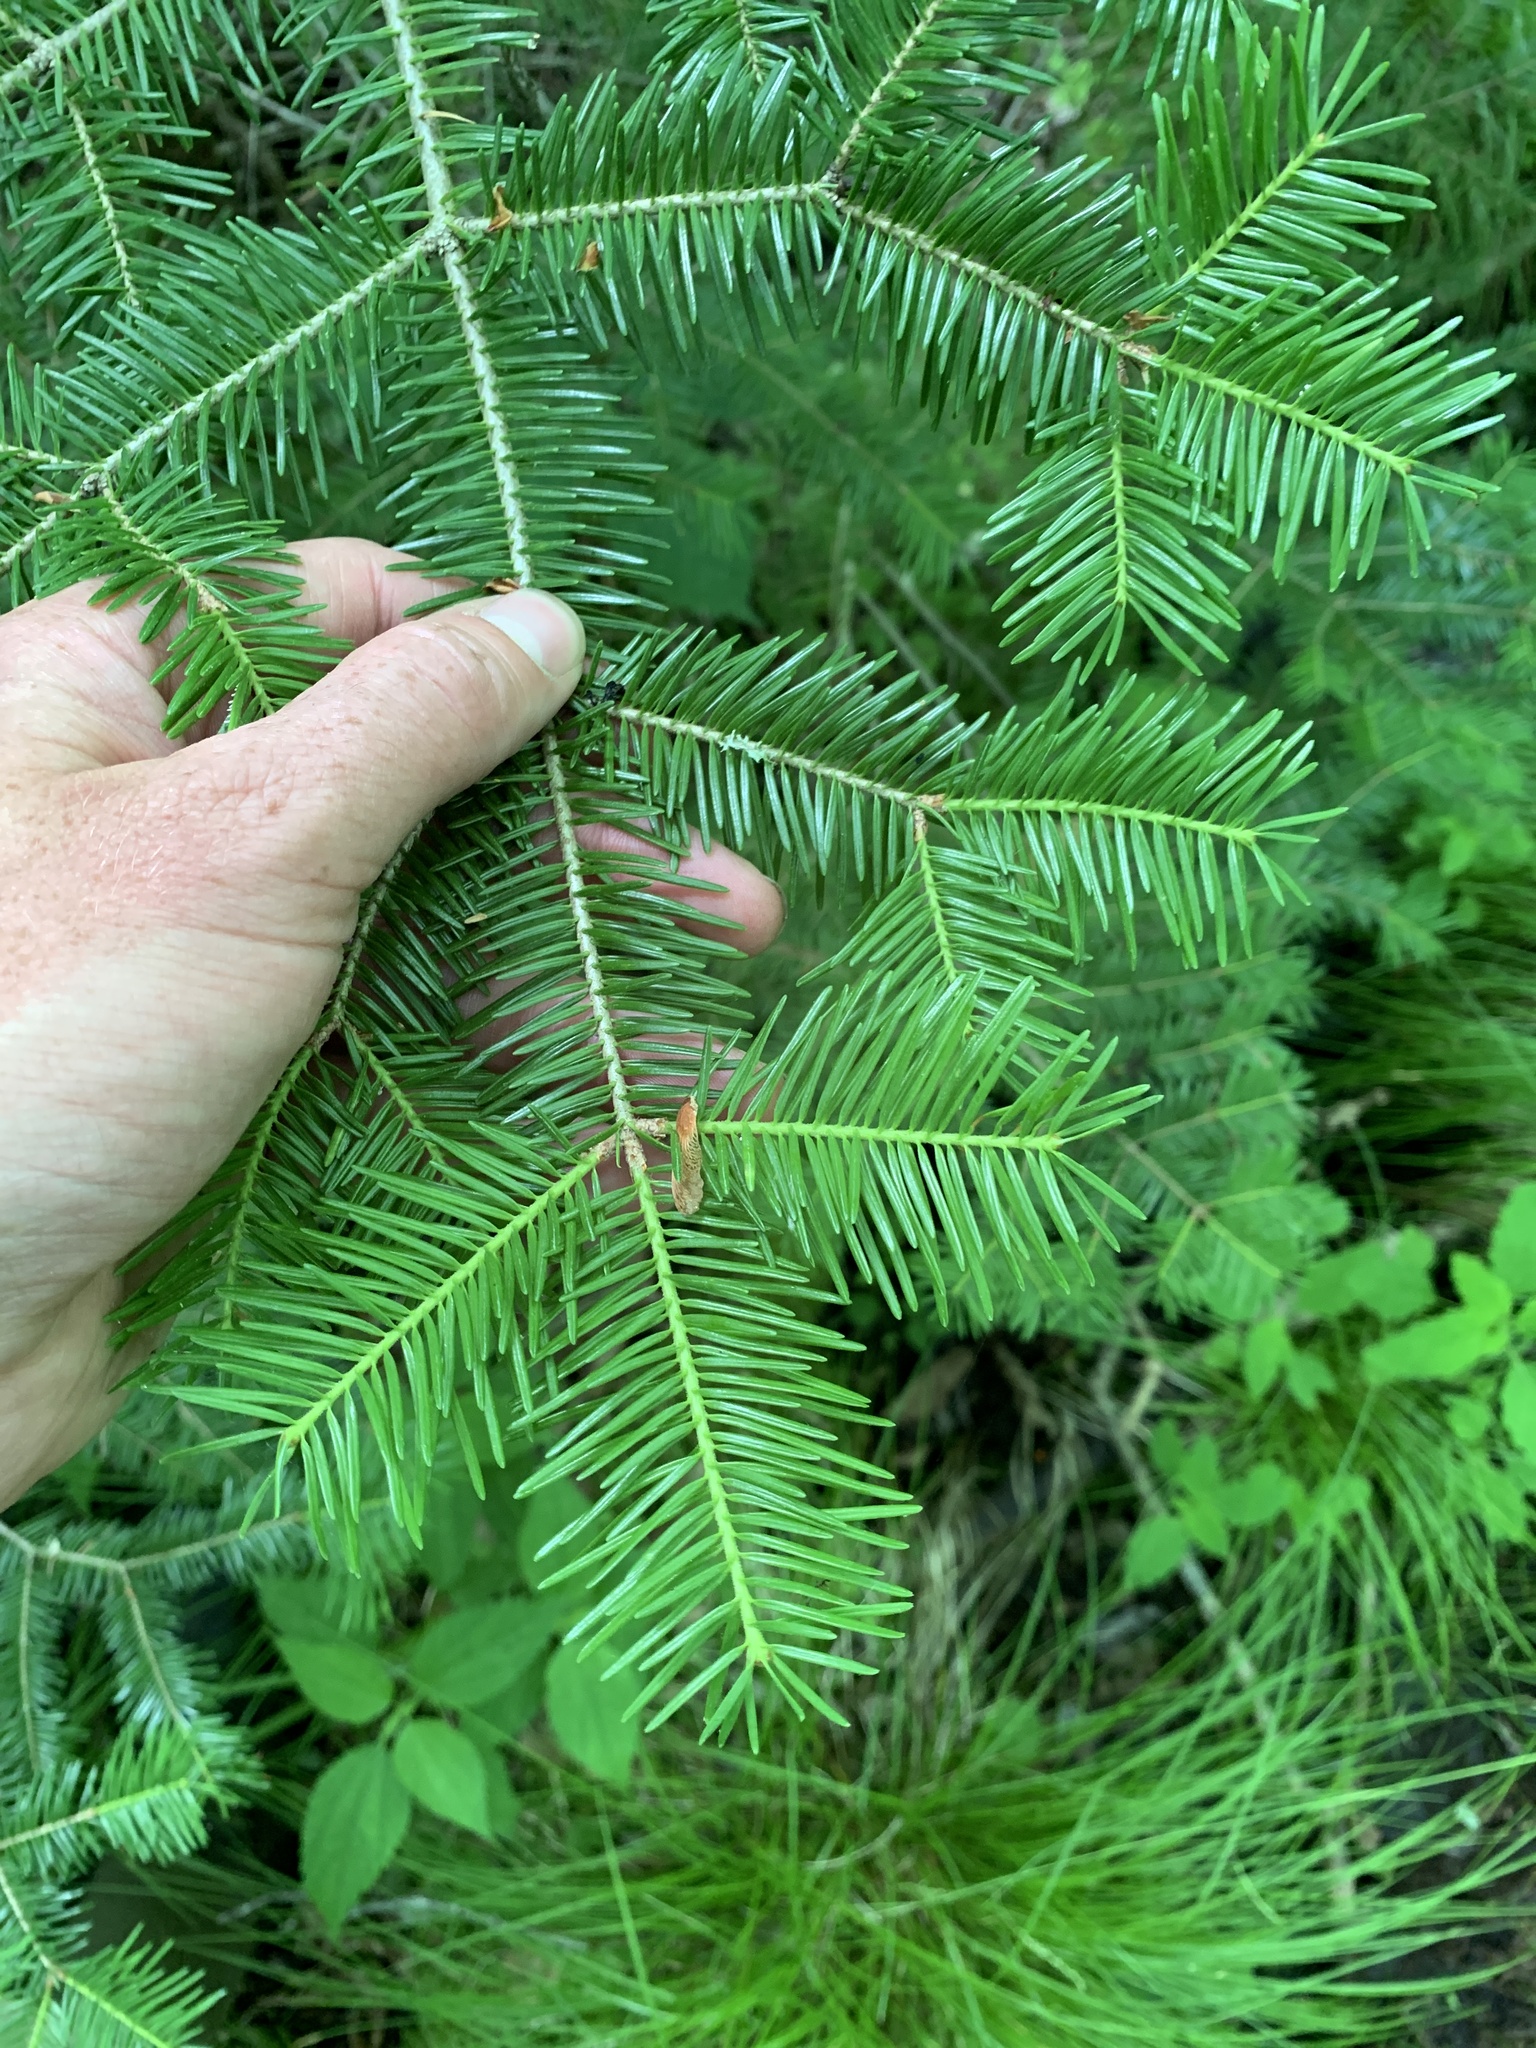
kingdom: Plantae
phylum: Tracheophyta
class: Pinopsida
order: Pinales
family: Pinaceae
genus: Abies
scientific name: Abies balsamea
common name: Balsam fir
